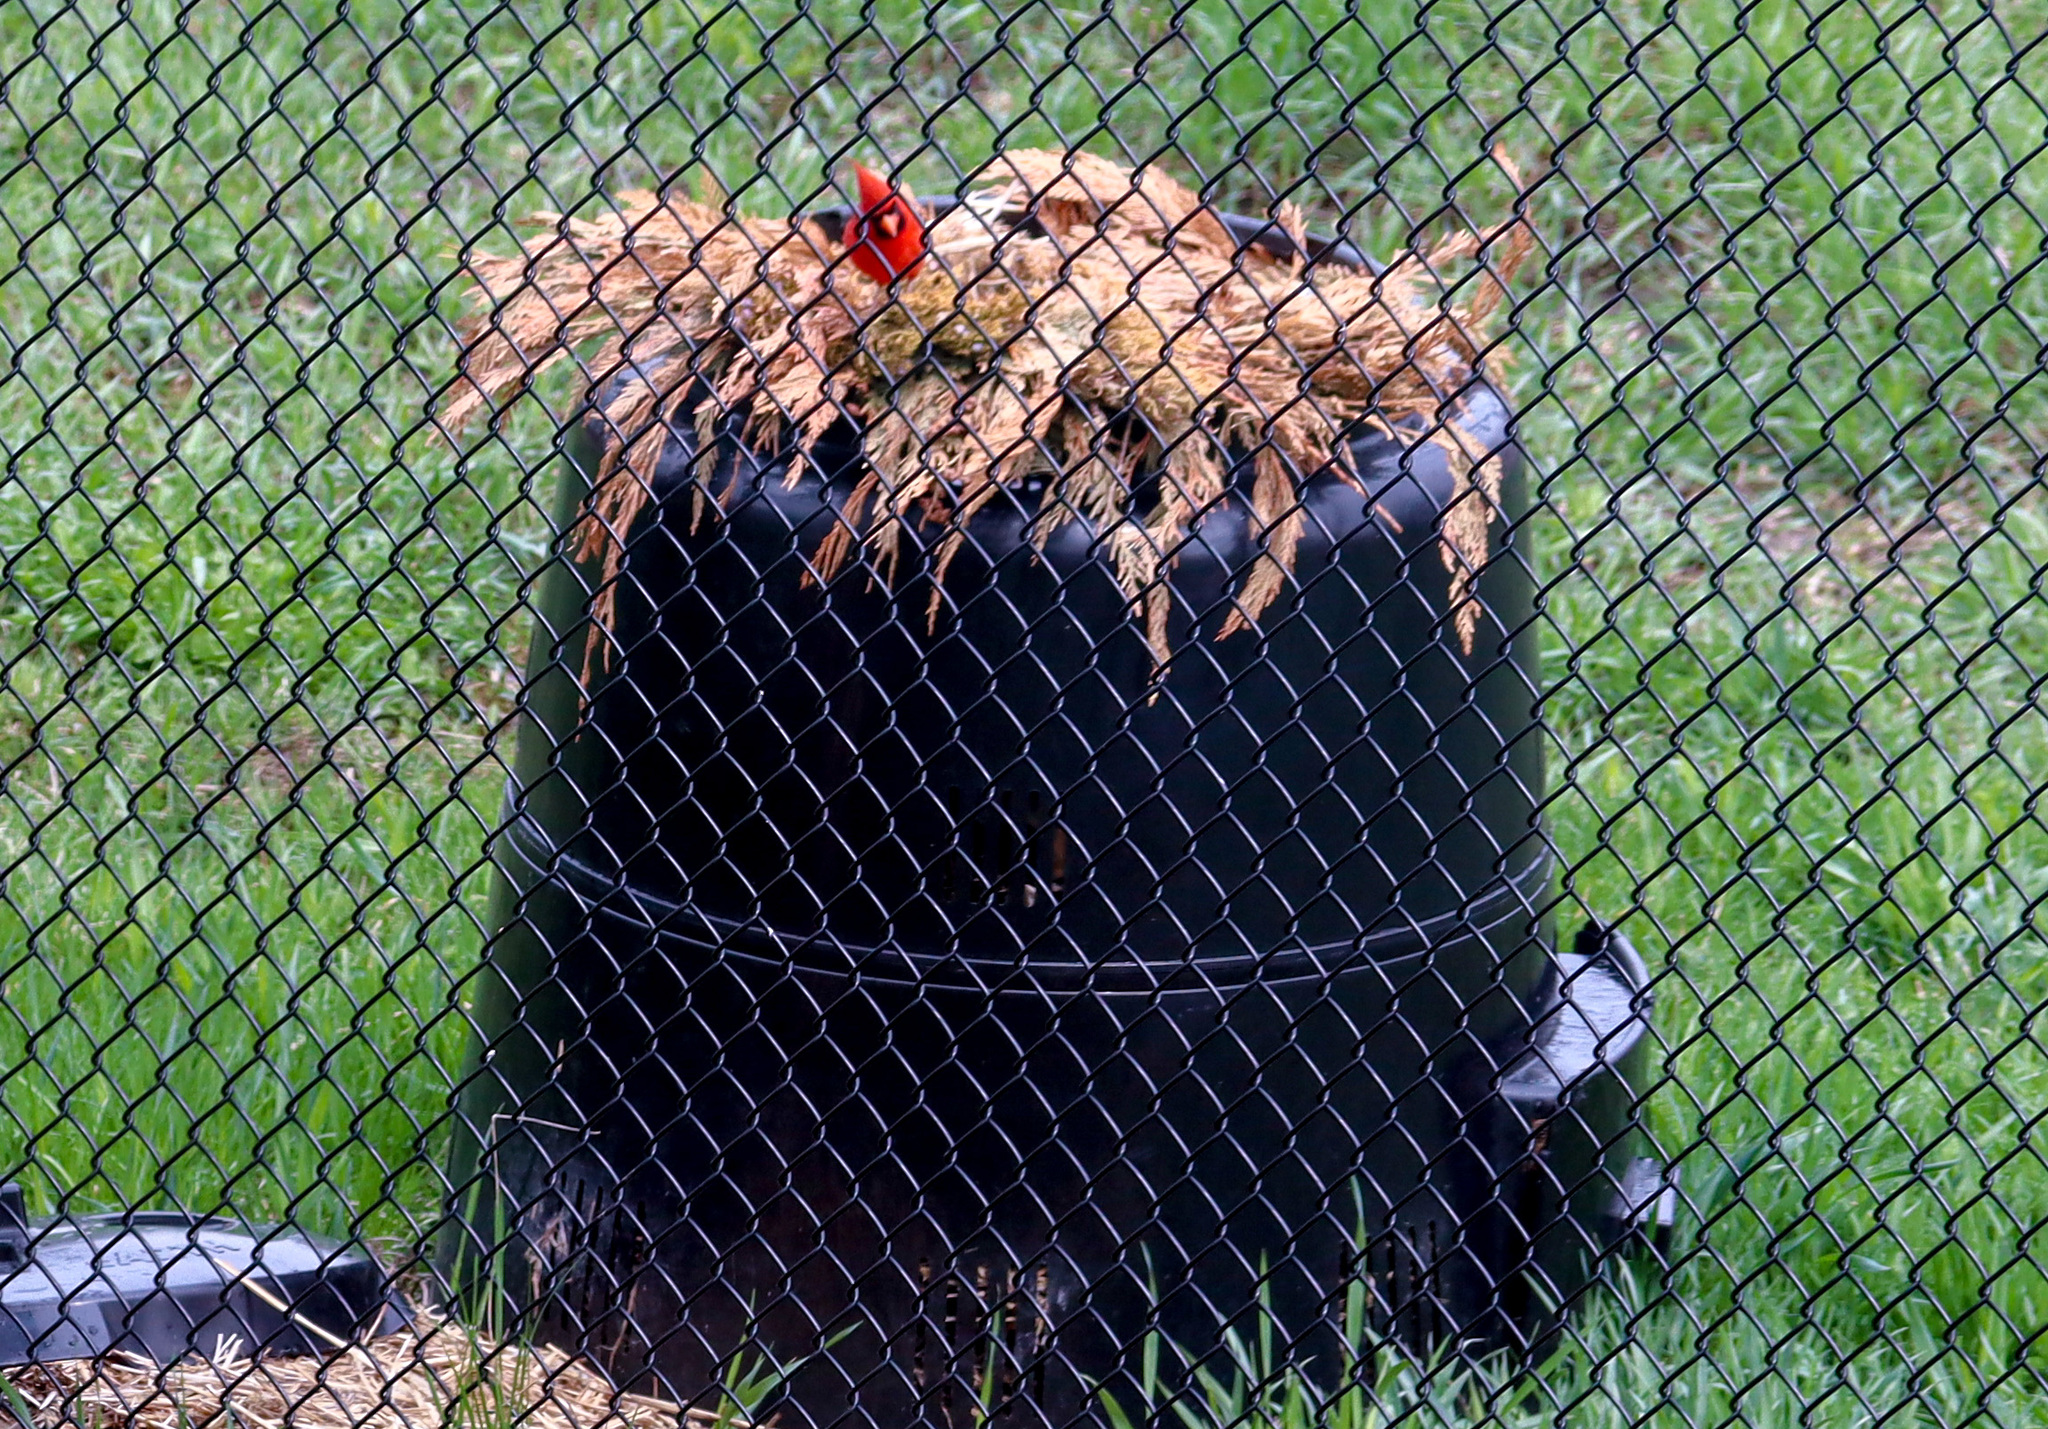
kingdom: Animalia
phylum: Chordata
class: Aves
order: Passeriformes
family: Cardinalidae
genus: Cardinalis
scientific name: Cardinalis cardinalis
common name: Northern cardinal
